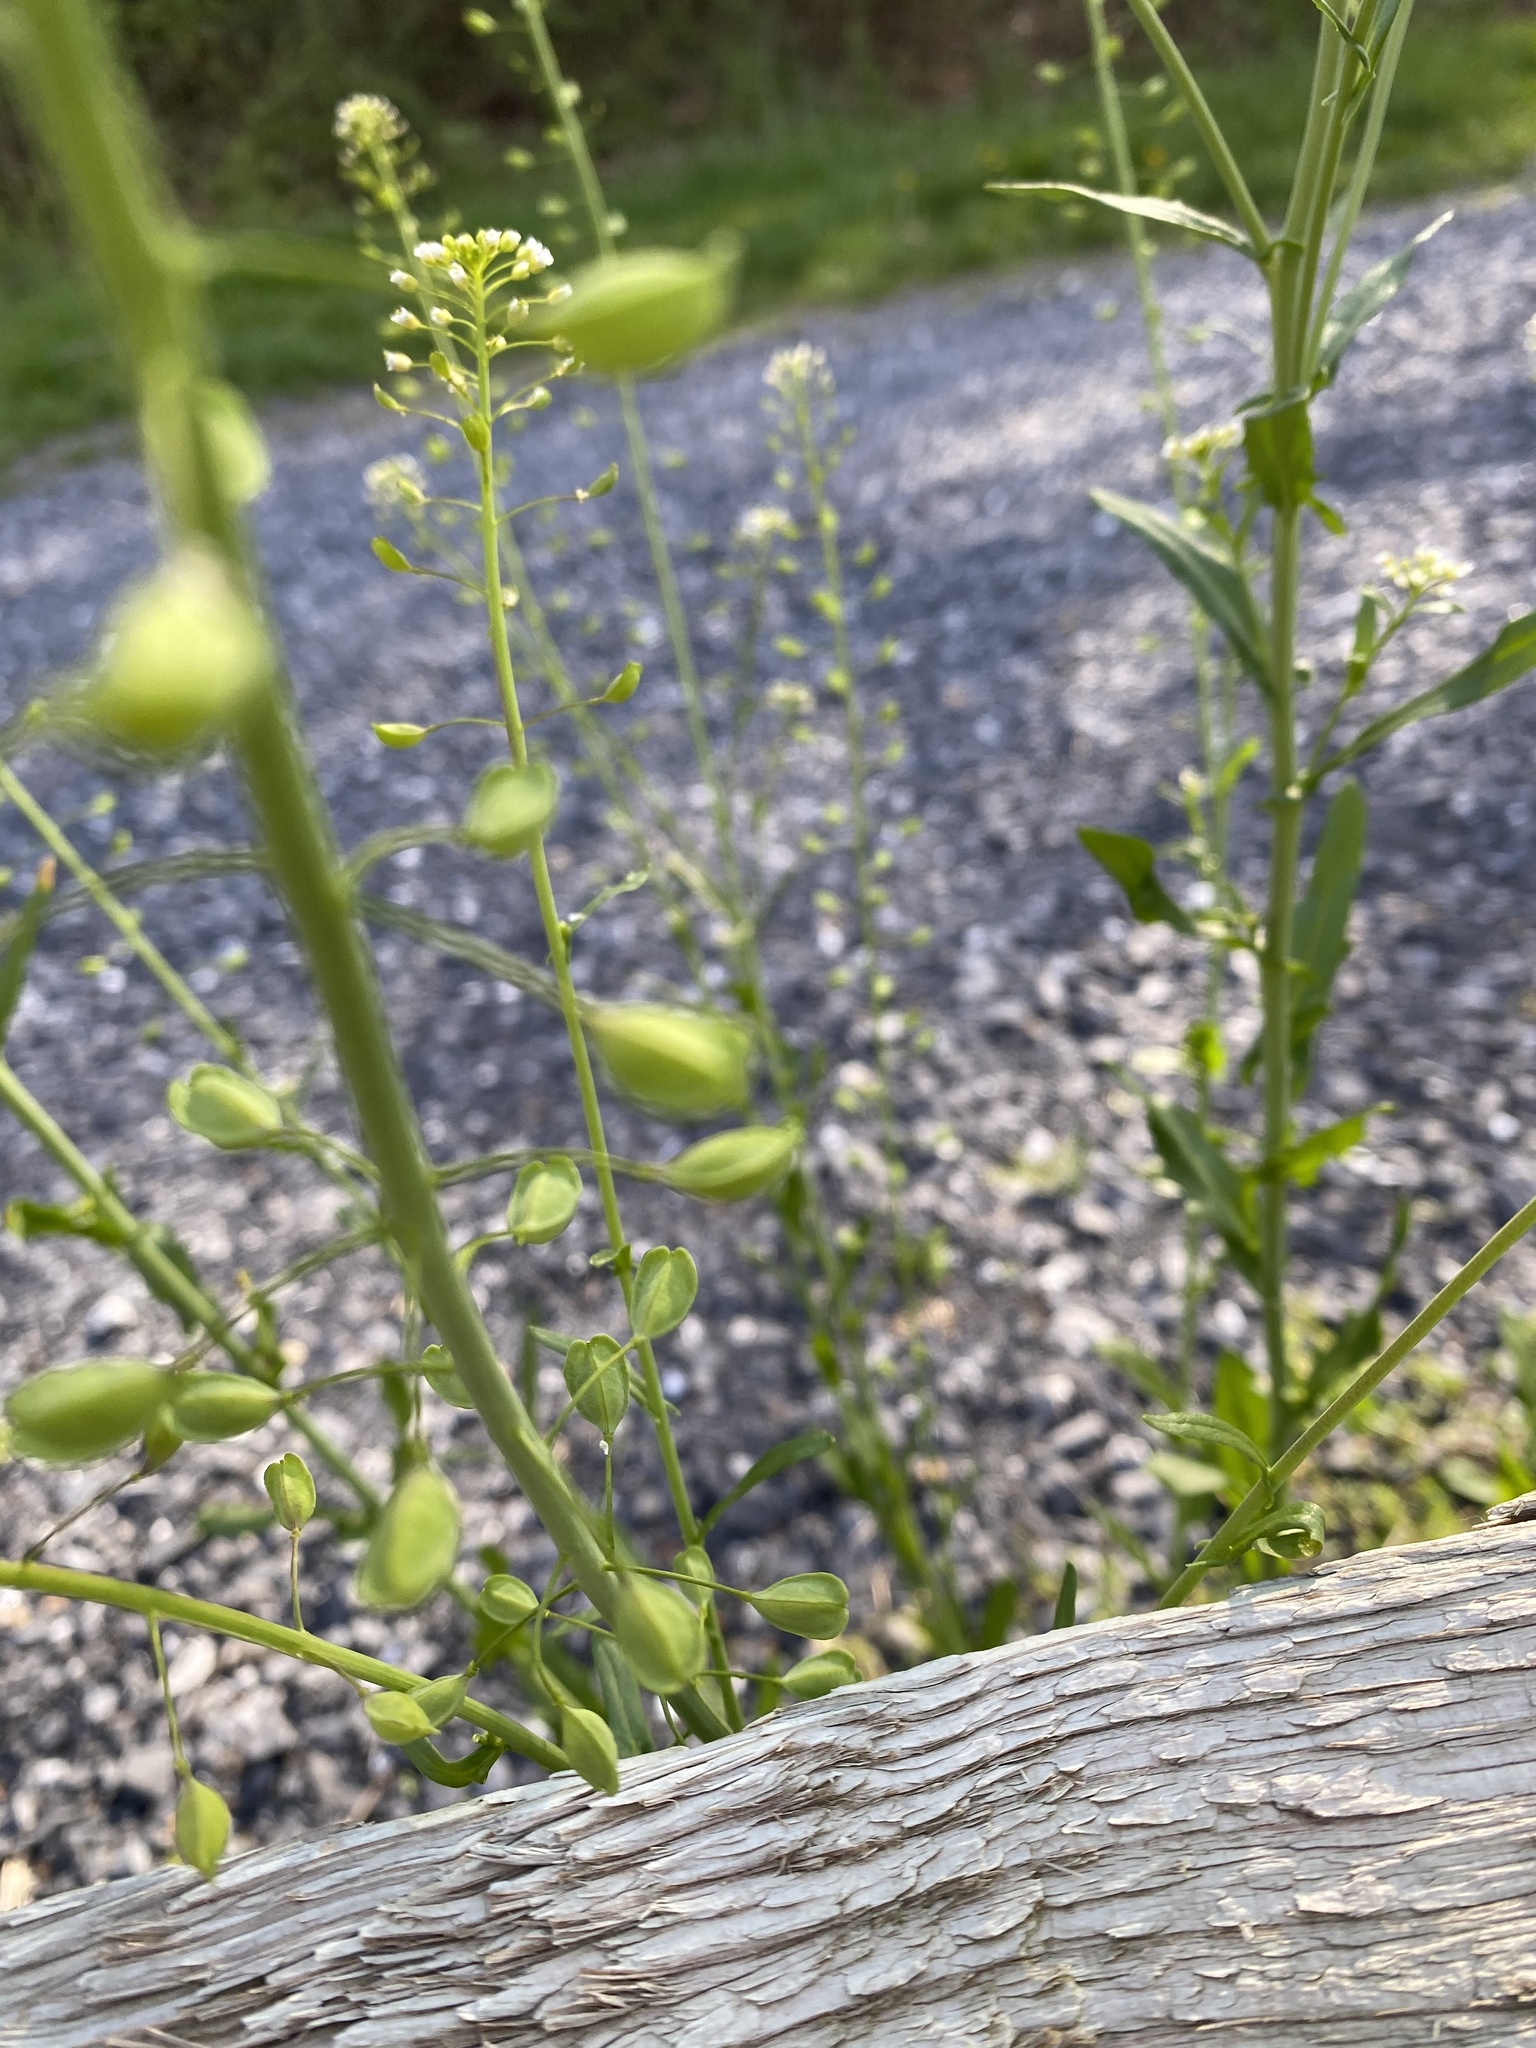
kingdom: Plantae
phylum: Tracheophyta
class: Magnoliopsida
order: Brassicales
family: Brassicaceae
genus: Mummenhoffia
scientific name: Mummenhoffia alliacea
